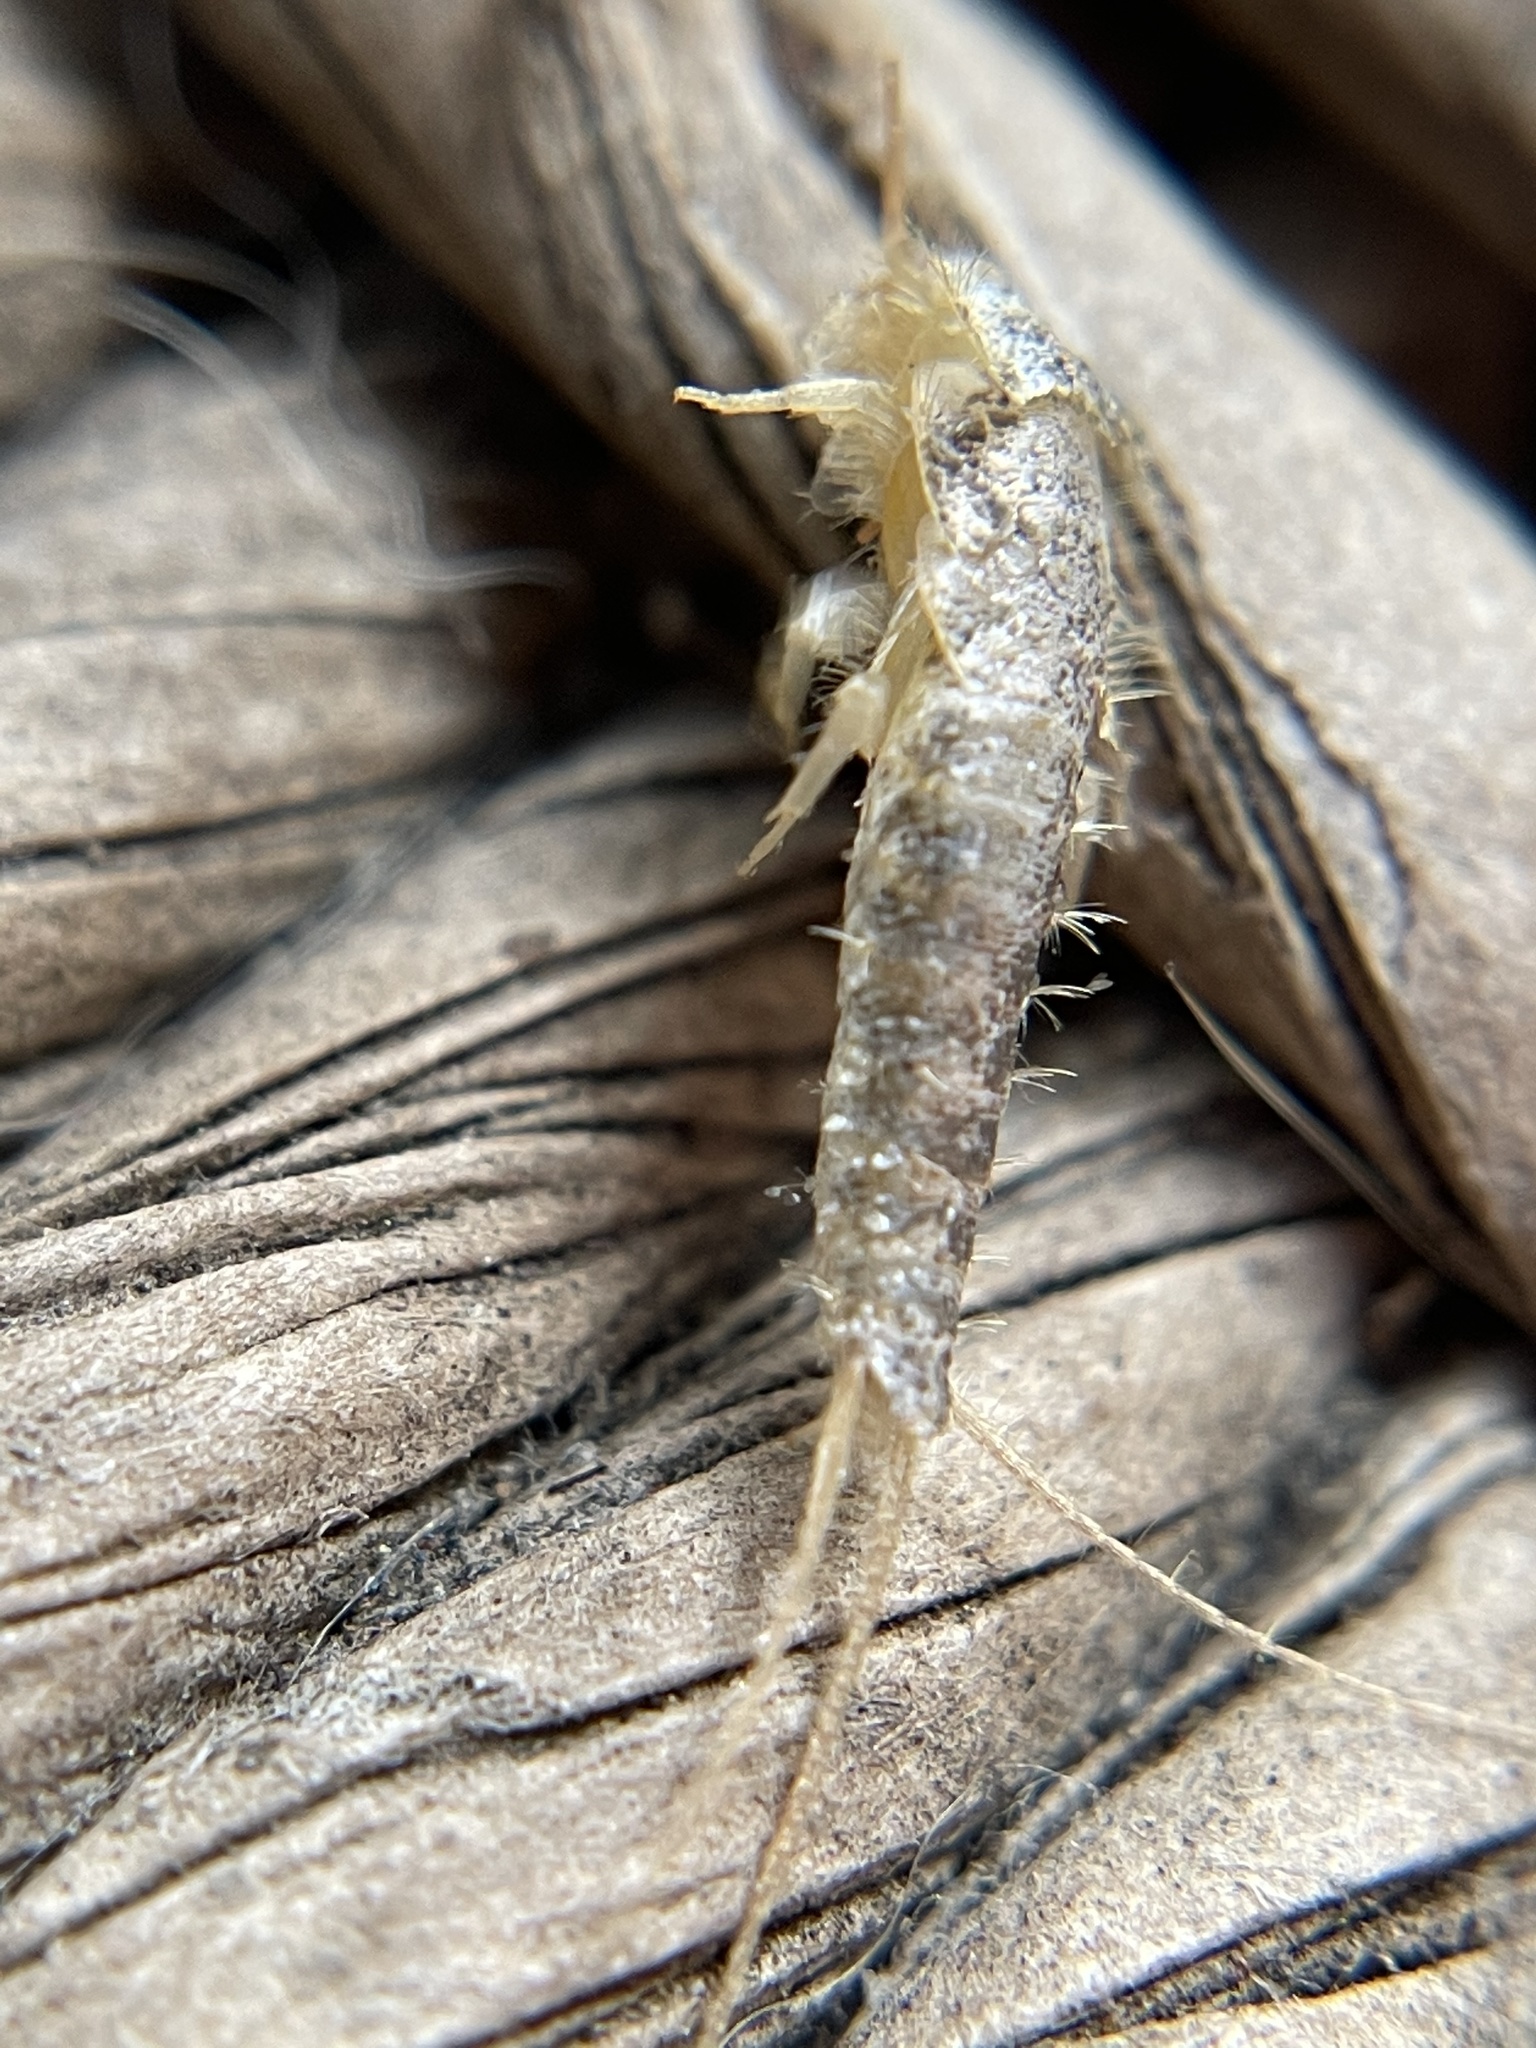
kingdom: Animalia
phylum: Arthropoda
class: Insecta
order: Zygentoma
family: Lepismatidae
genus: Ctenolepisma
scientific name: Ctenolepisma longicaudatum
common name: Silverfish
